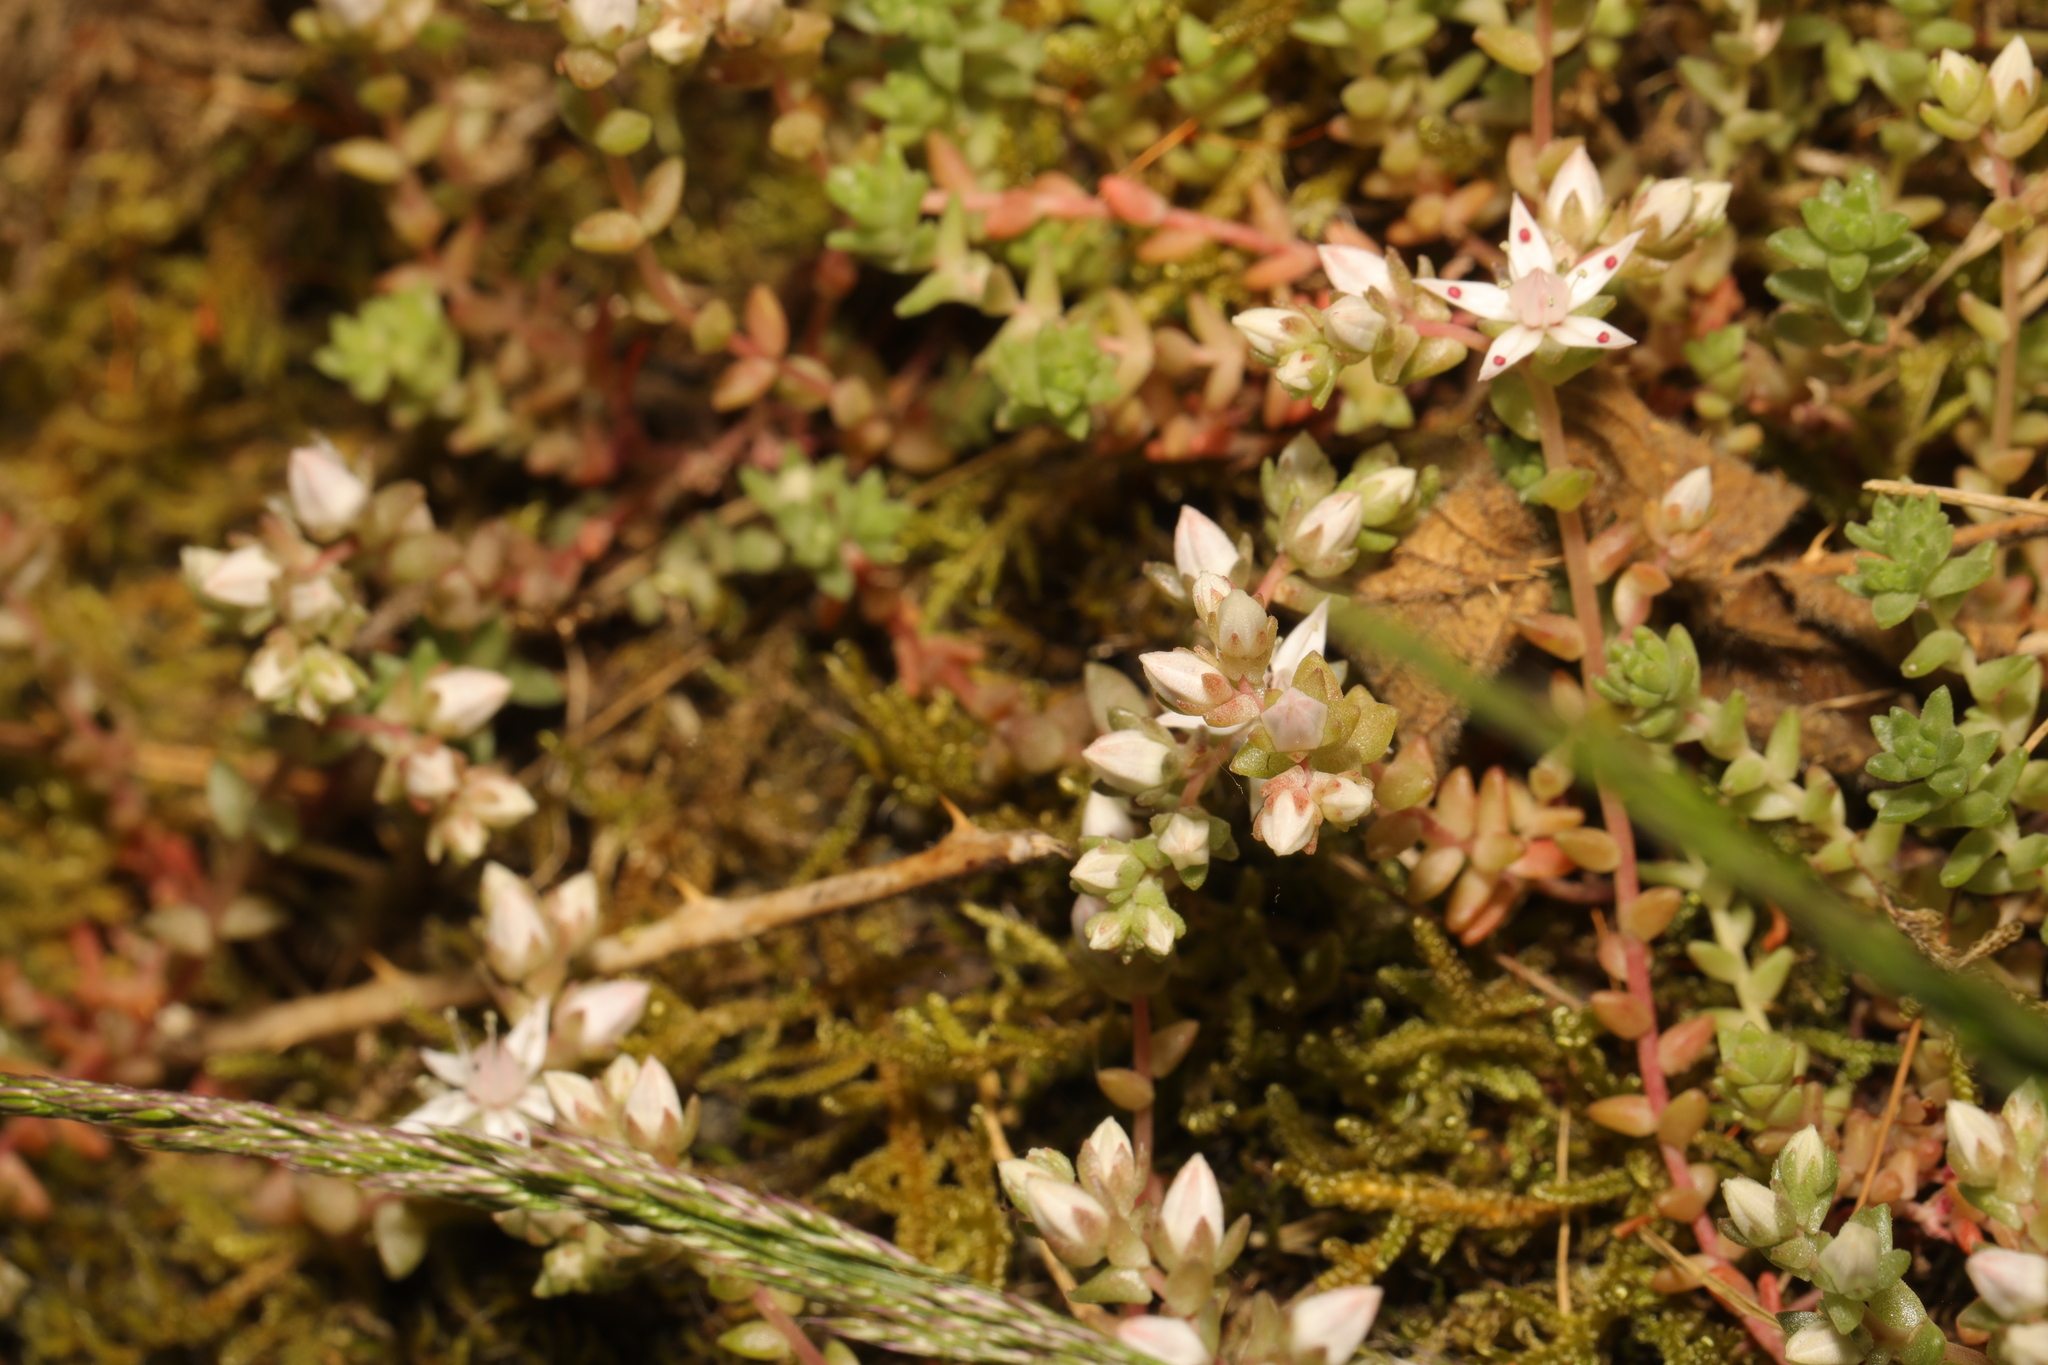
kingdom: Plantae
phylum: Tracheophyta
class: Magnoliopsida
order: Saxifragales
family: Crassulaceae
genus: Sedum
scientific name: Sedum anglicum
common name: English stonecrop
